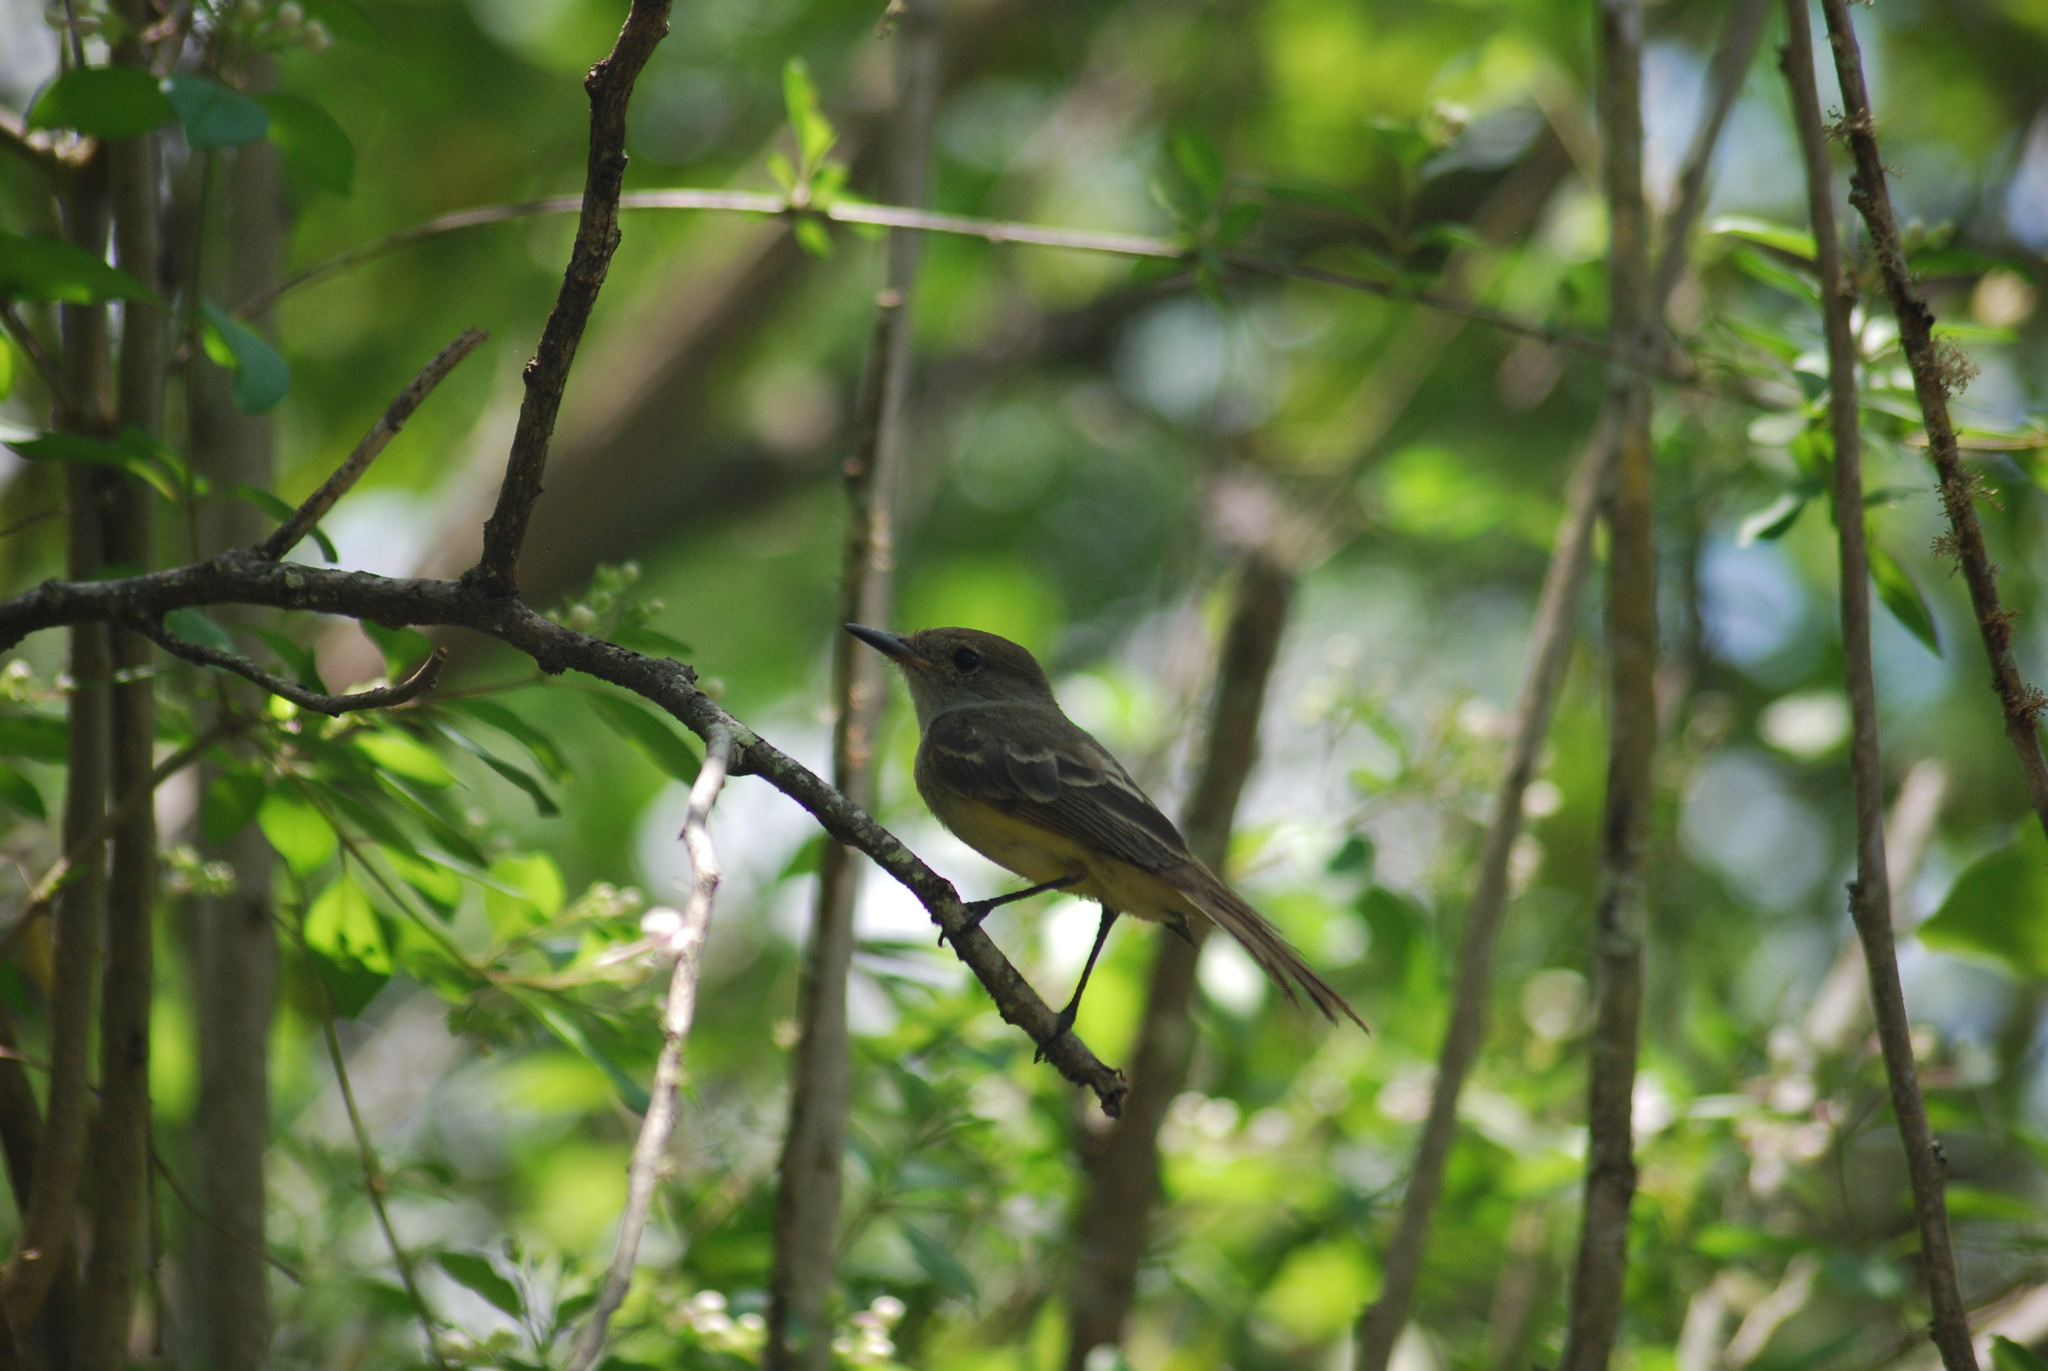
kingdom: Animalia
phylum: Chordata
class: Aves
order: Passeriformes
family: Tyrannidae
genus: Myiarchus
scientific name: Myiarchus magnirostris
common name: Galapagos flycatcher
